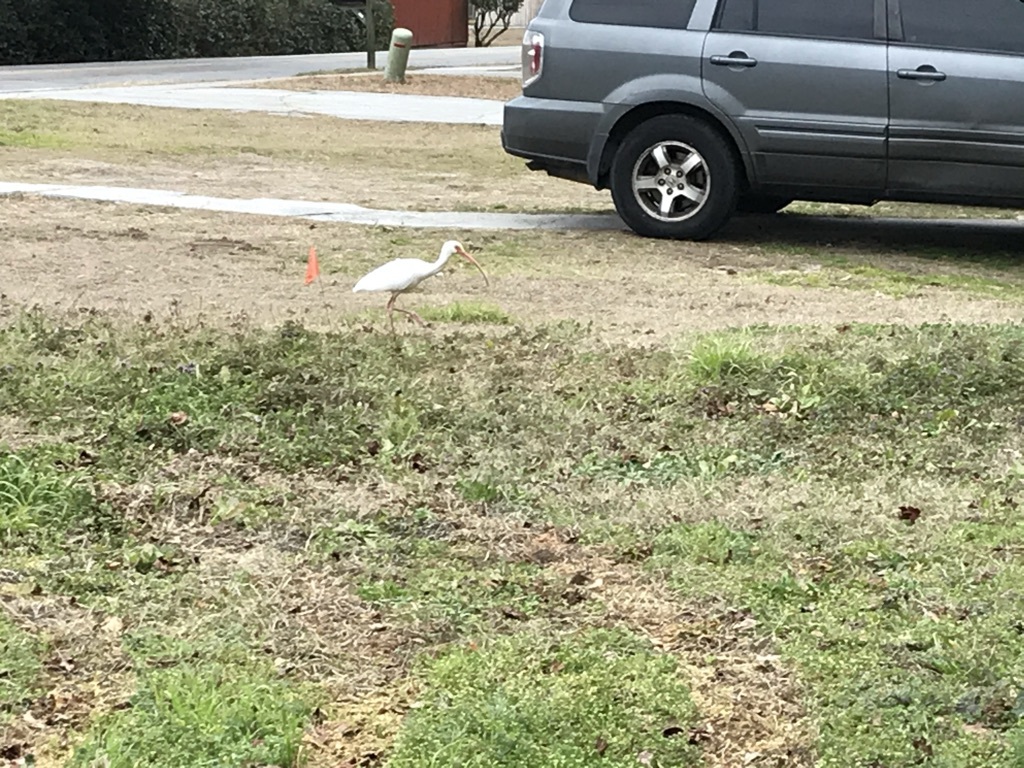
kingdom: Animalia
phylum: Chordata
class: Aves
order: Pelecaniformes
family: Threskiornithidae
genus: Eudocimus
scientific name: Eudocimus albus
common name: White ibis
